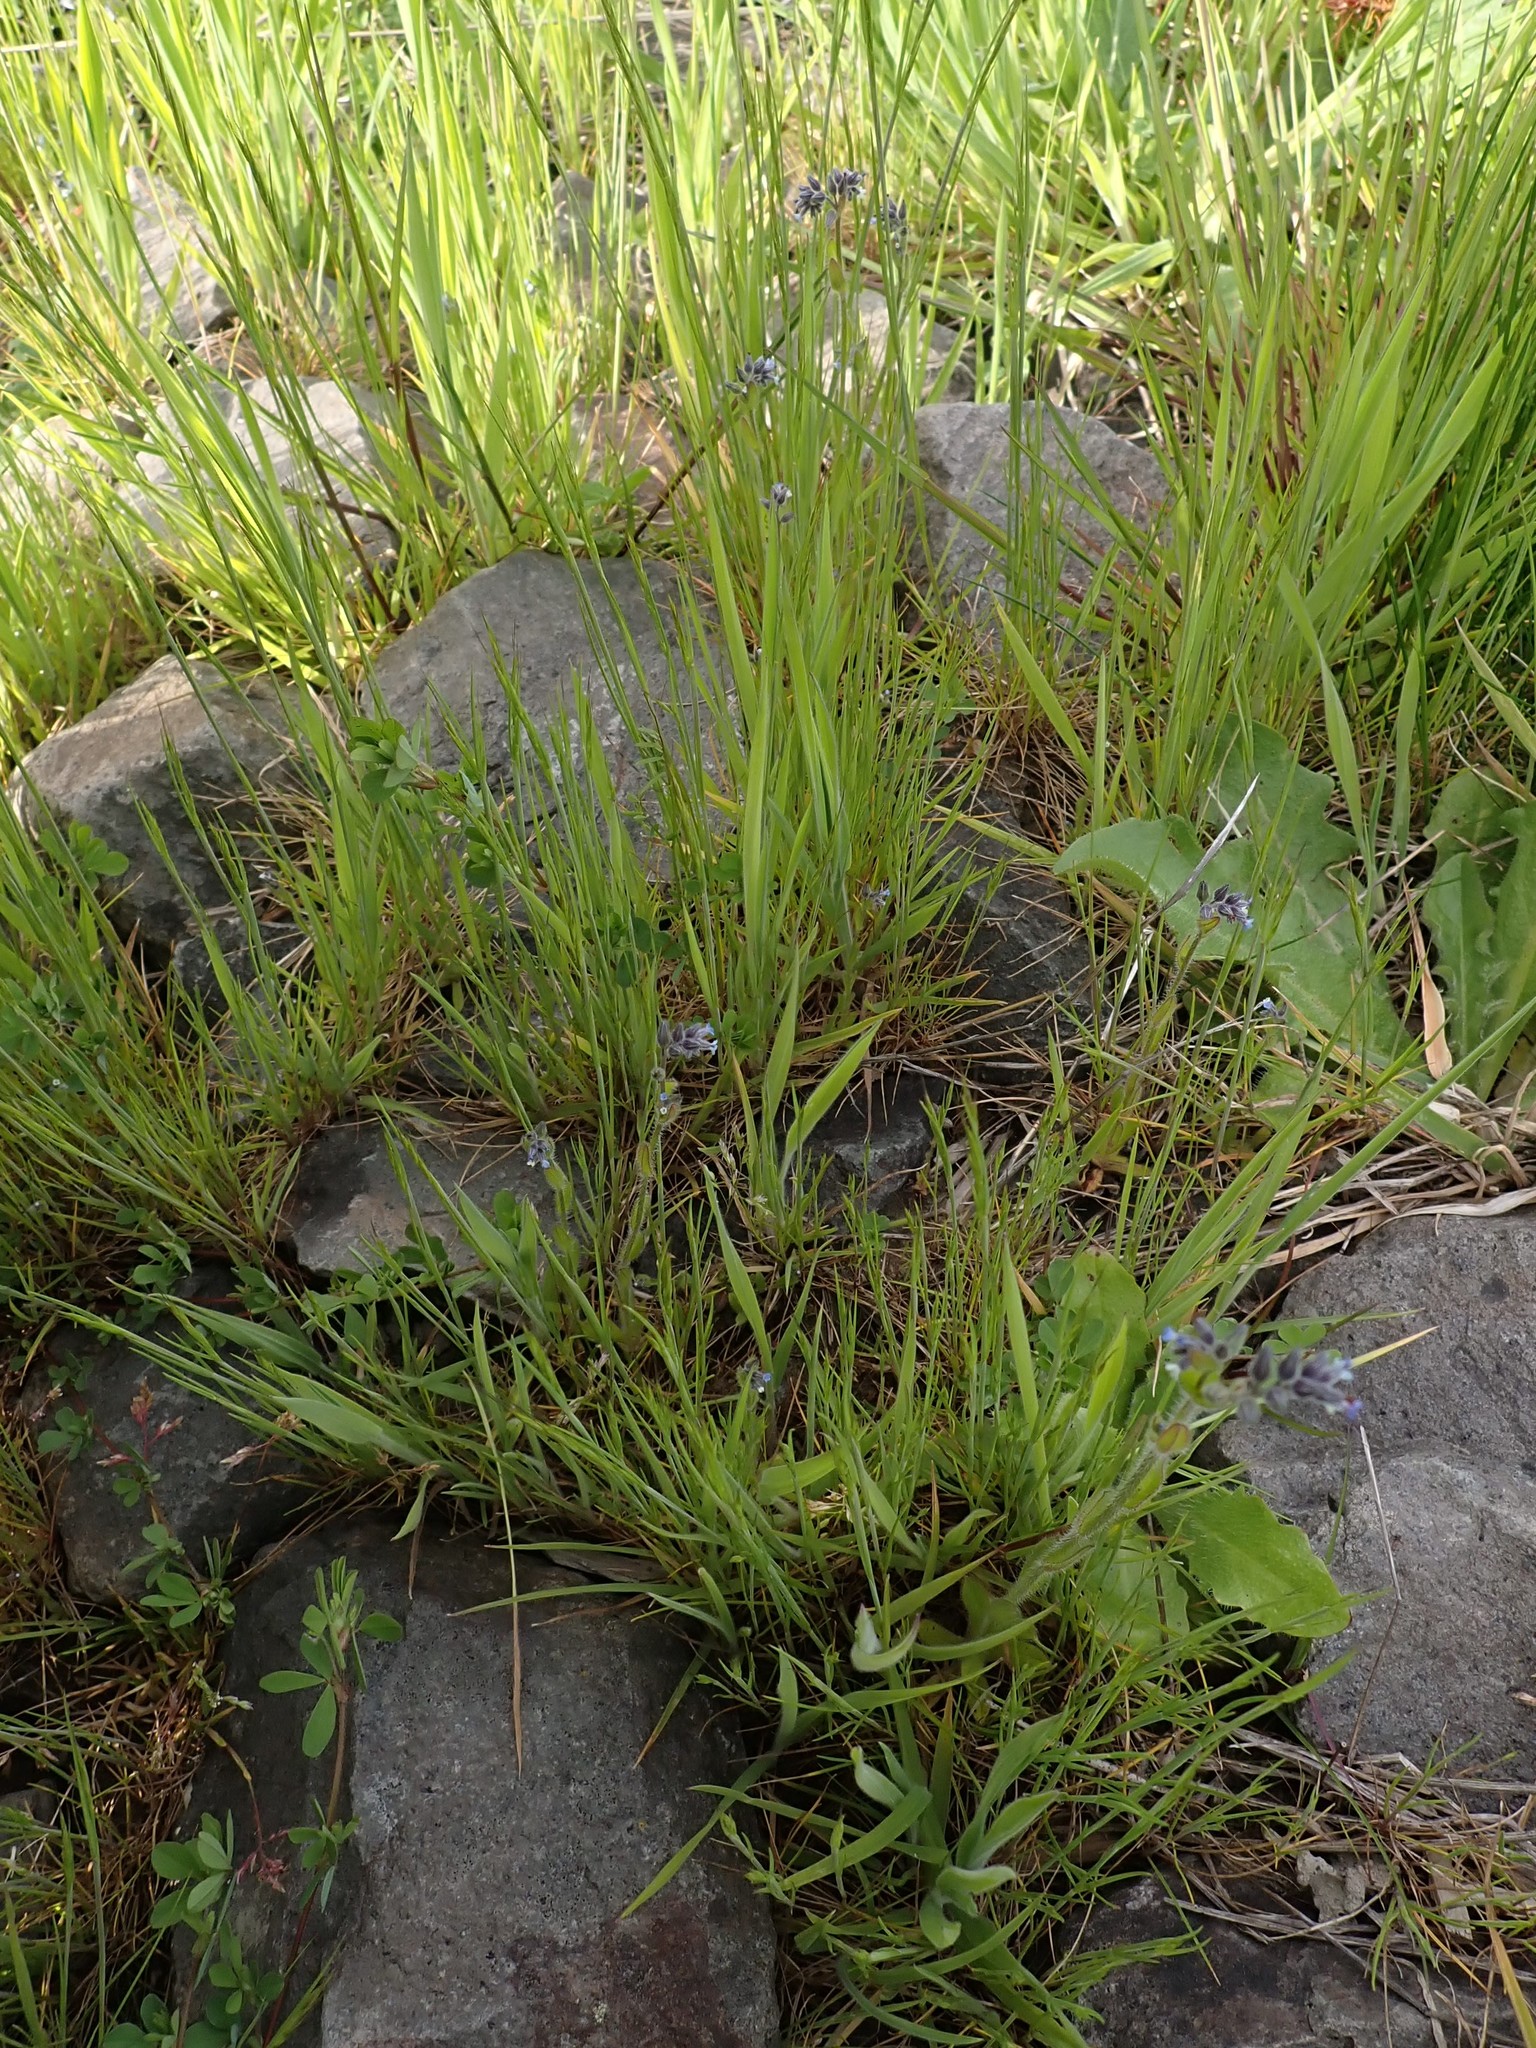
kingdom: Plantae
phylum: Tracheophyta
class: Magnoliopsida
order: Boraginales
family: Boraginaceae
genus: Myosotis
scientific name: Myosotis discolor
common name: Changing forget-me-not
